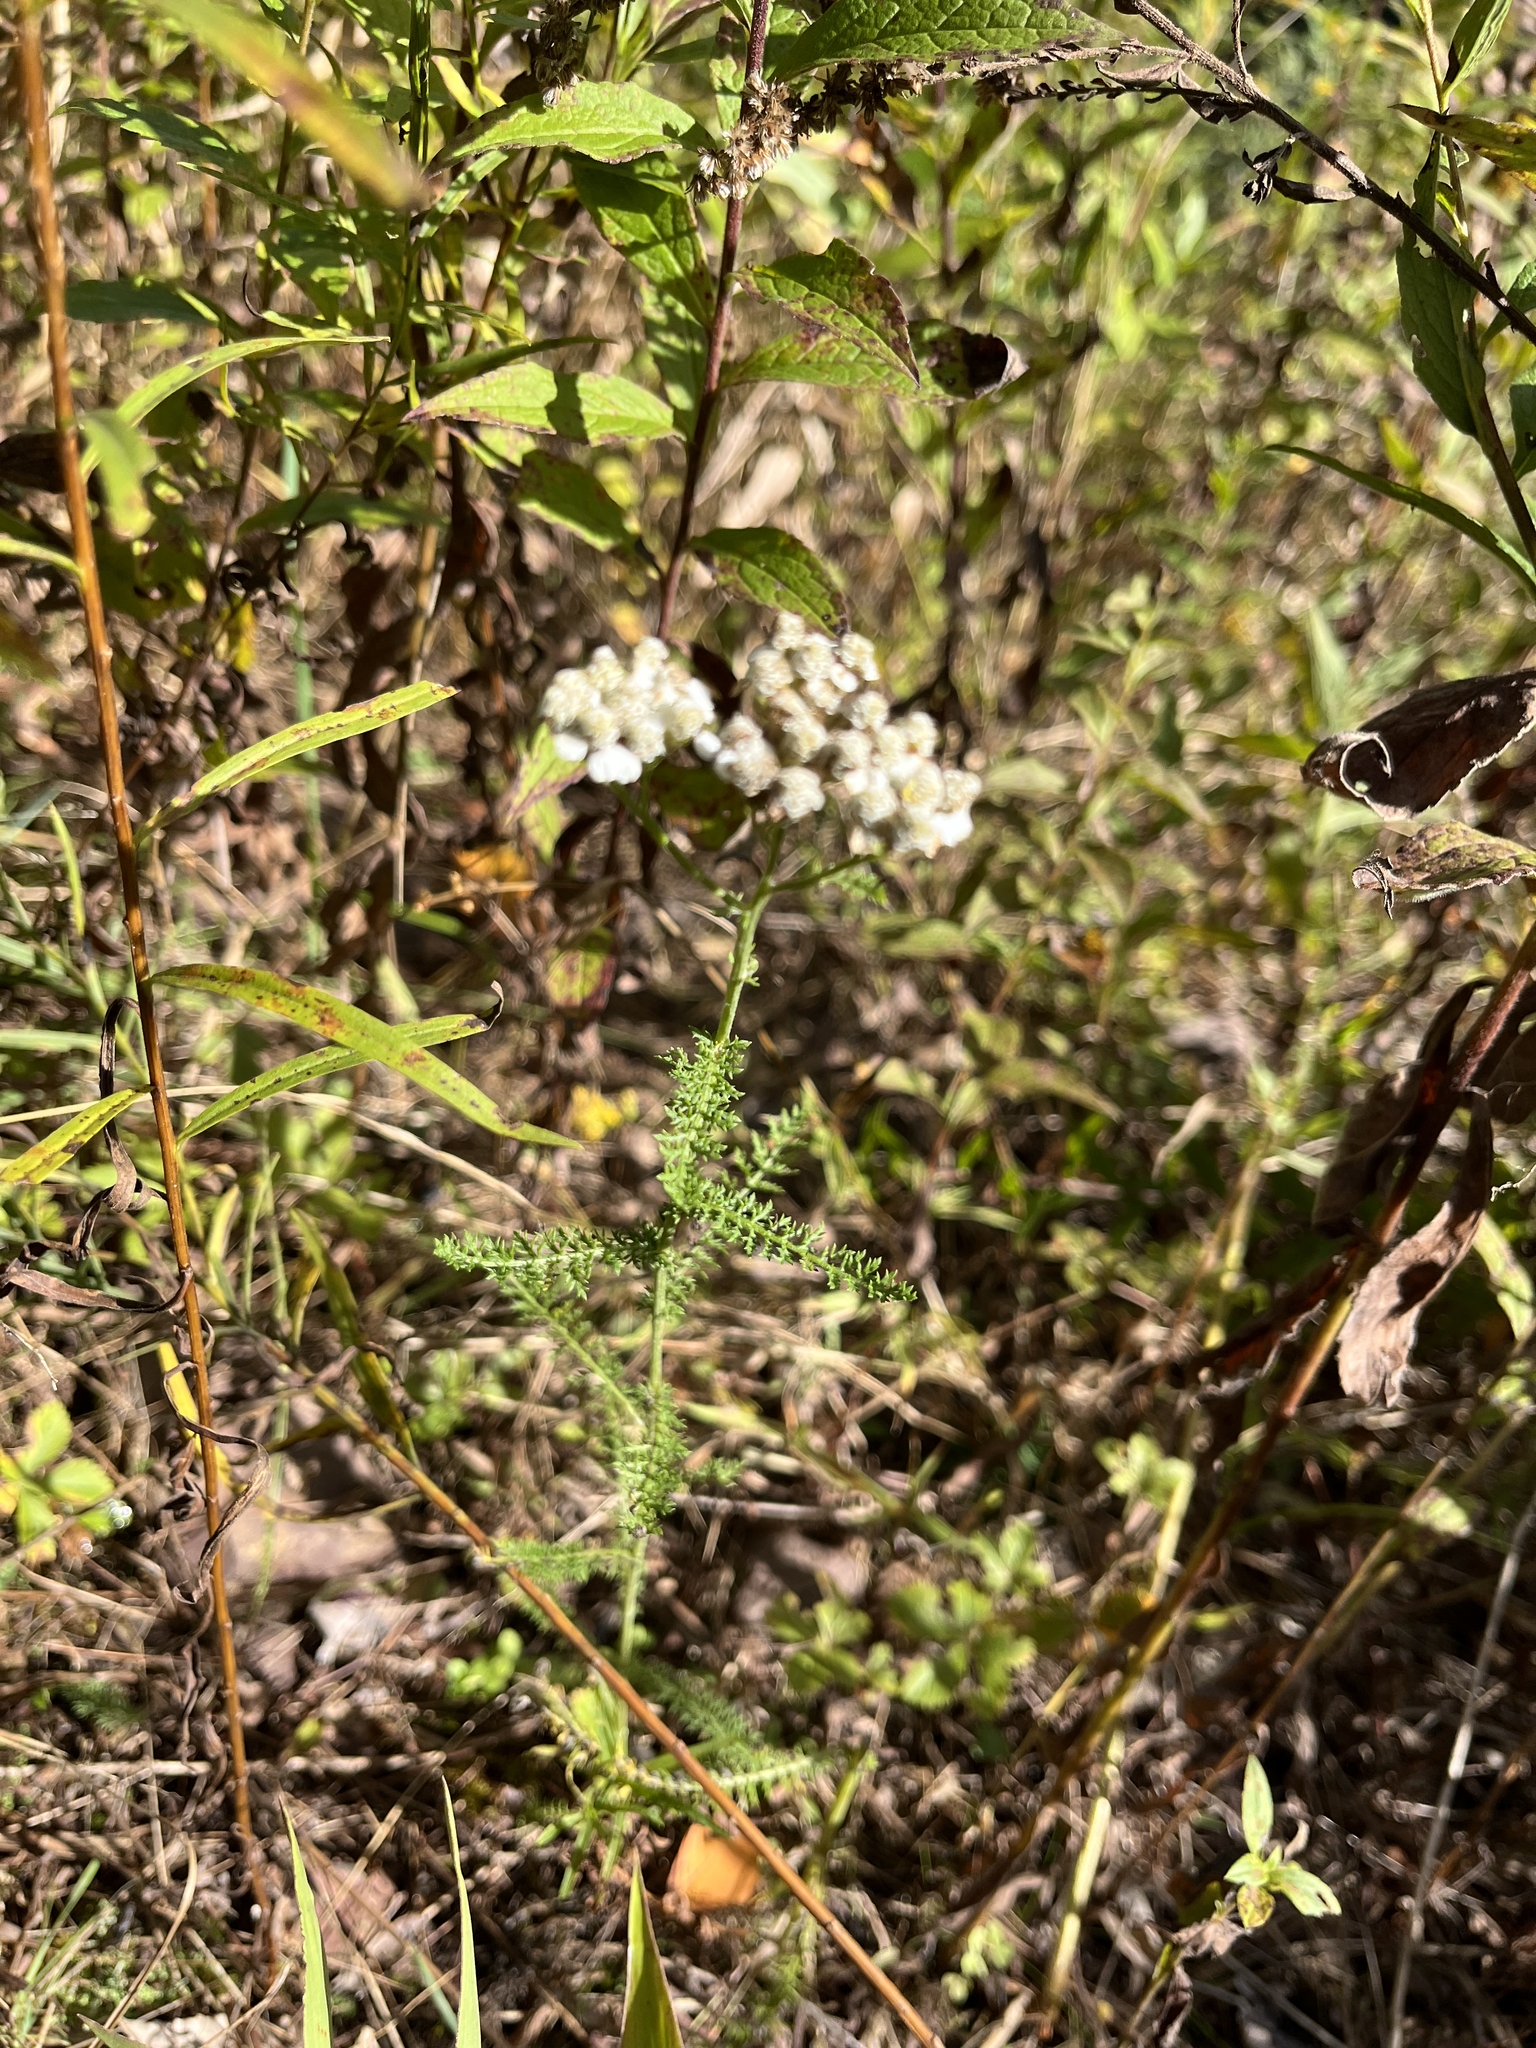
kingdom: Plantae
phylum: Tracheophyta
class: Magnoliopsida
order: Asterales
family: Asteraceae
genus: Achillea
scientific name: Achillea millefolium
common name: Yarrow
